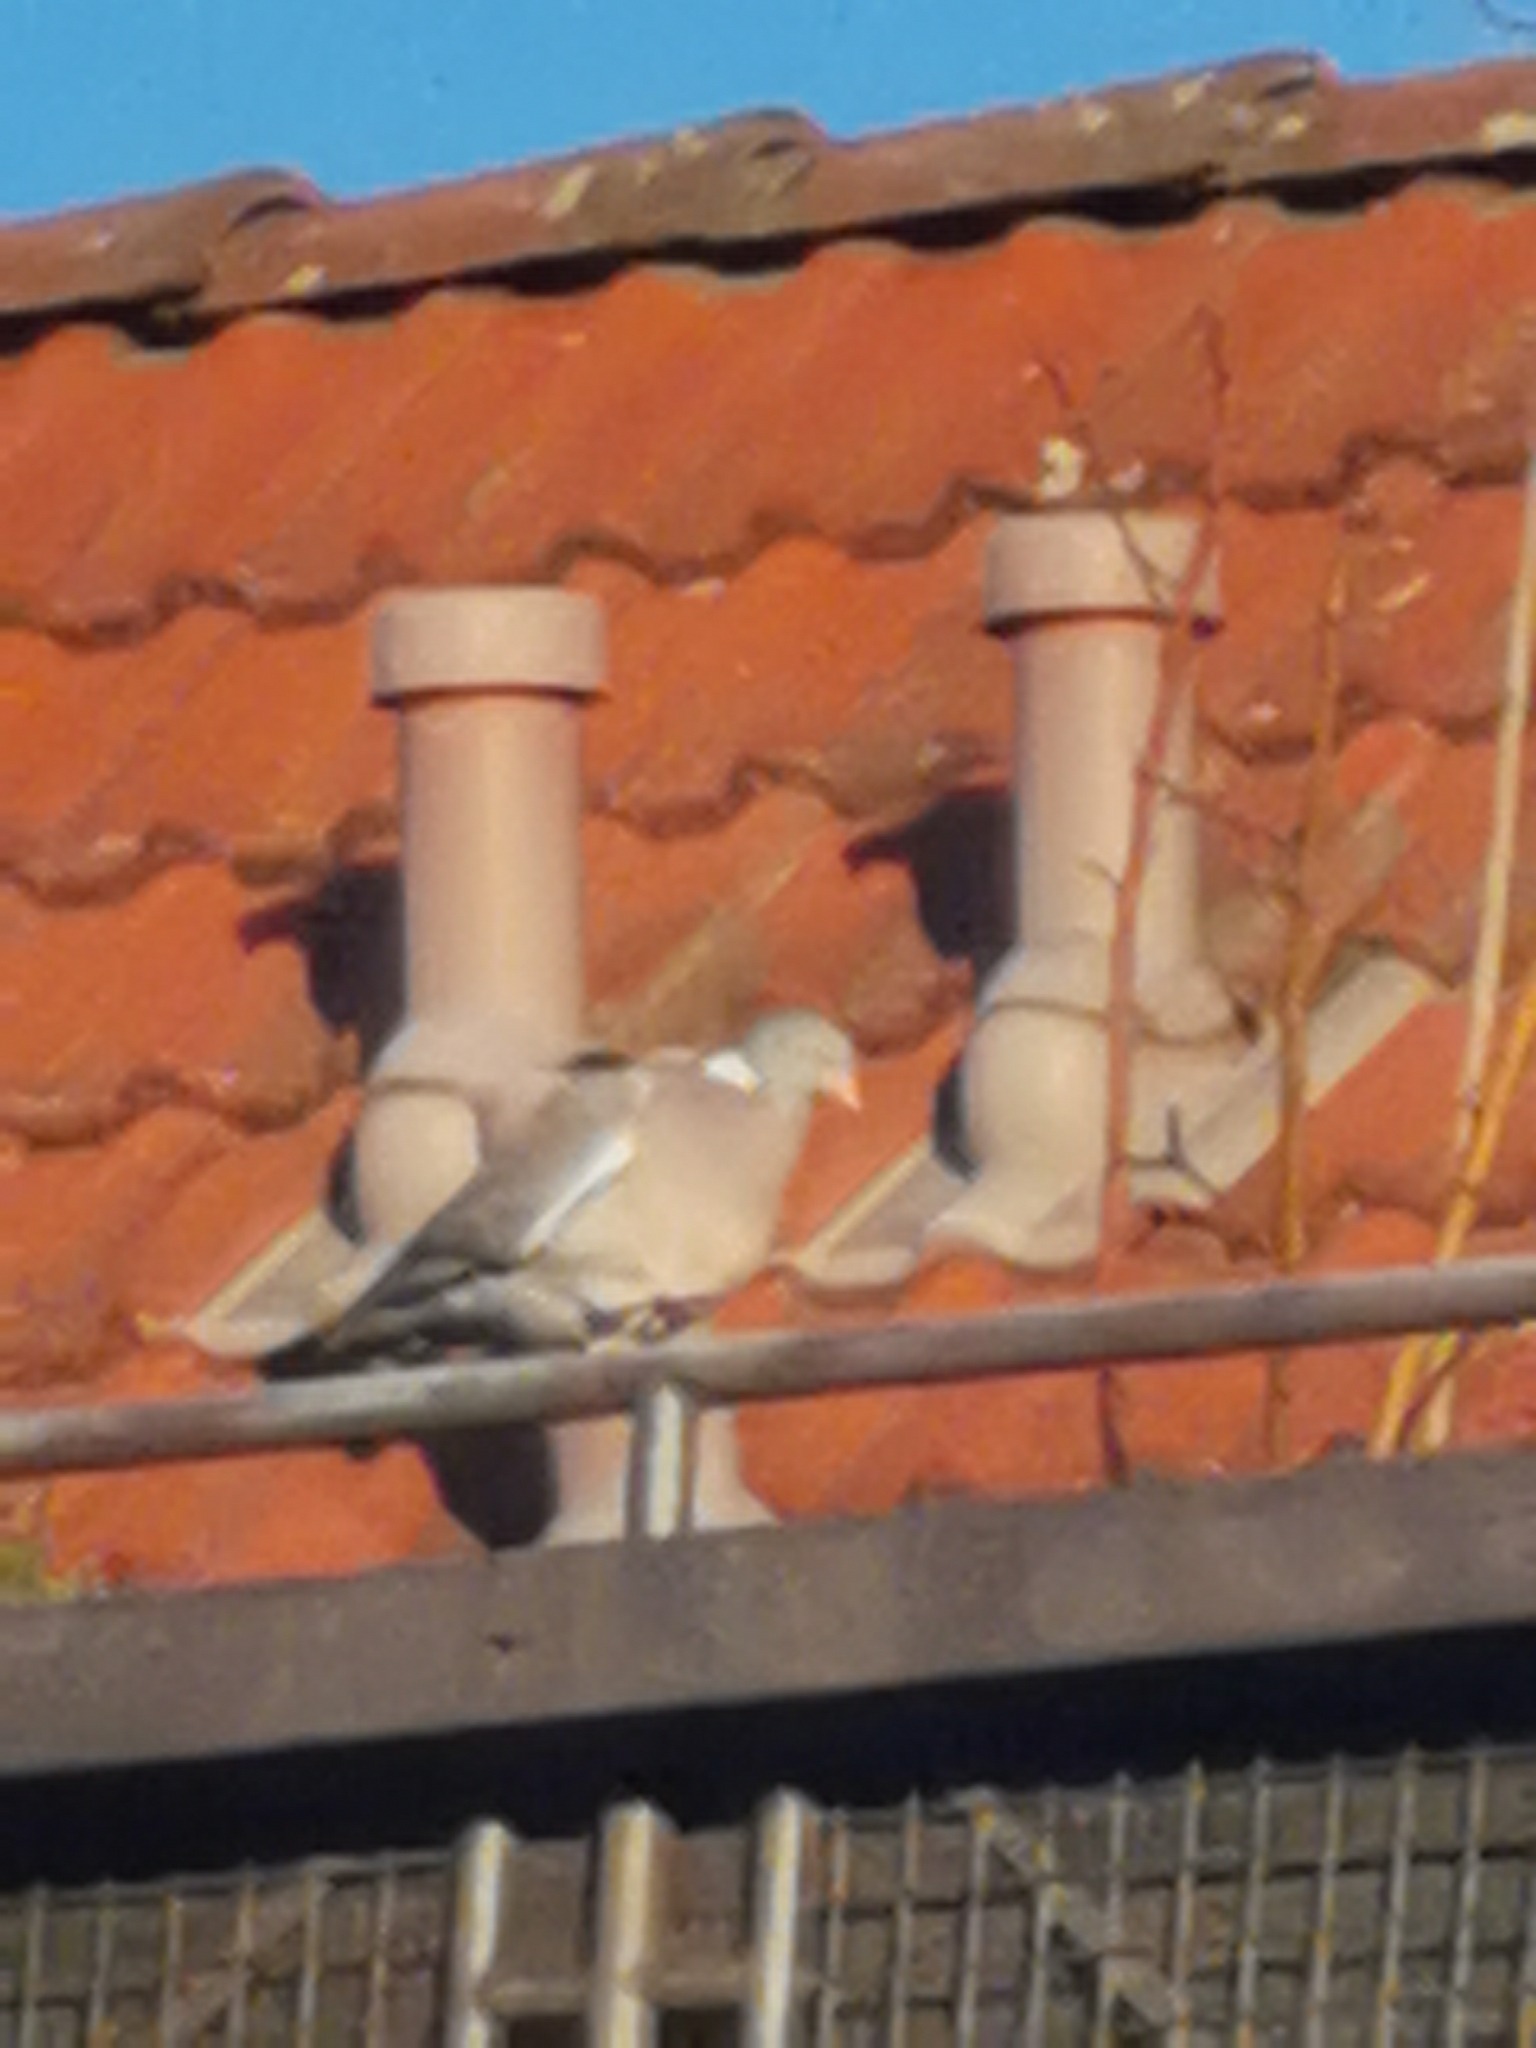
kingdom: Animalia
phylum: Chordata
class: Aves
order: Columbiformes
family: Columbidae
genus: Columba
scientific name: Columba palumbus
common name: Common wood pigeon
